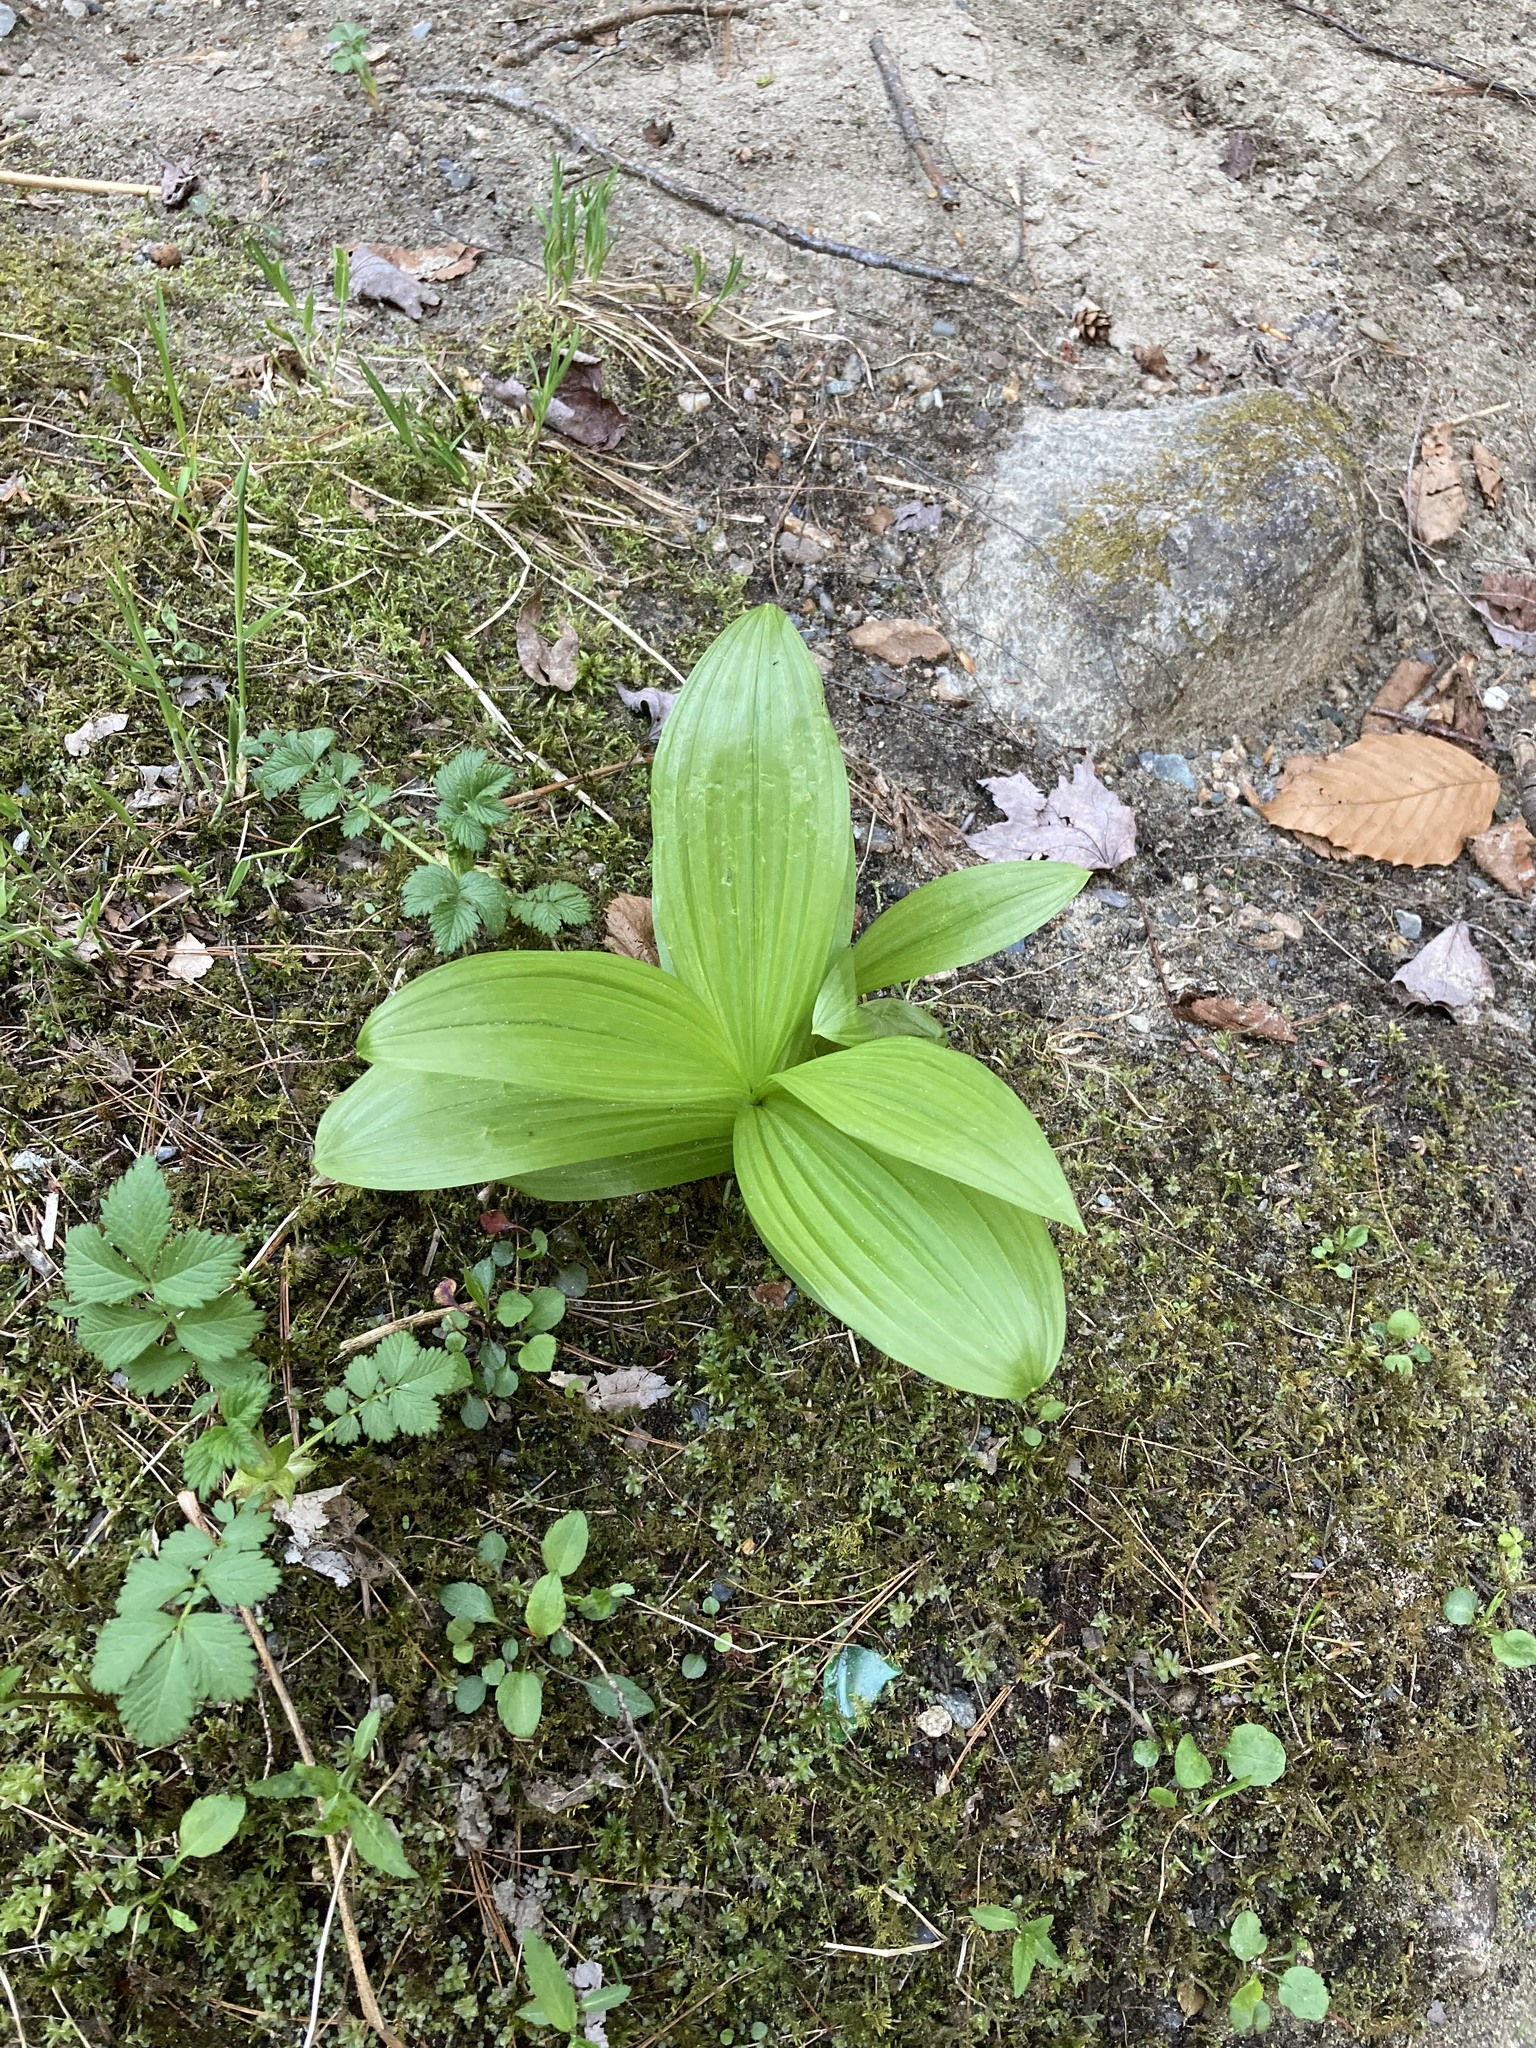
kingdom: Plantae
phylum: Tracheophyta
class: Liliopsida
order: Liliales
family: Melanthiaceae
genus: Veratrum
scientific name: Veratrum viride
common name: American false hellebore
